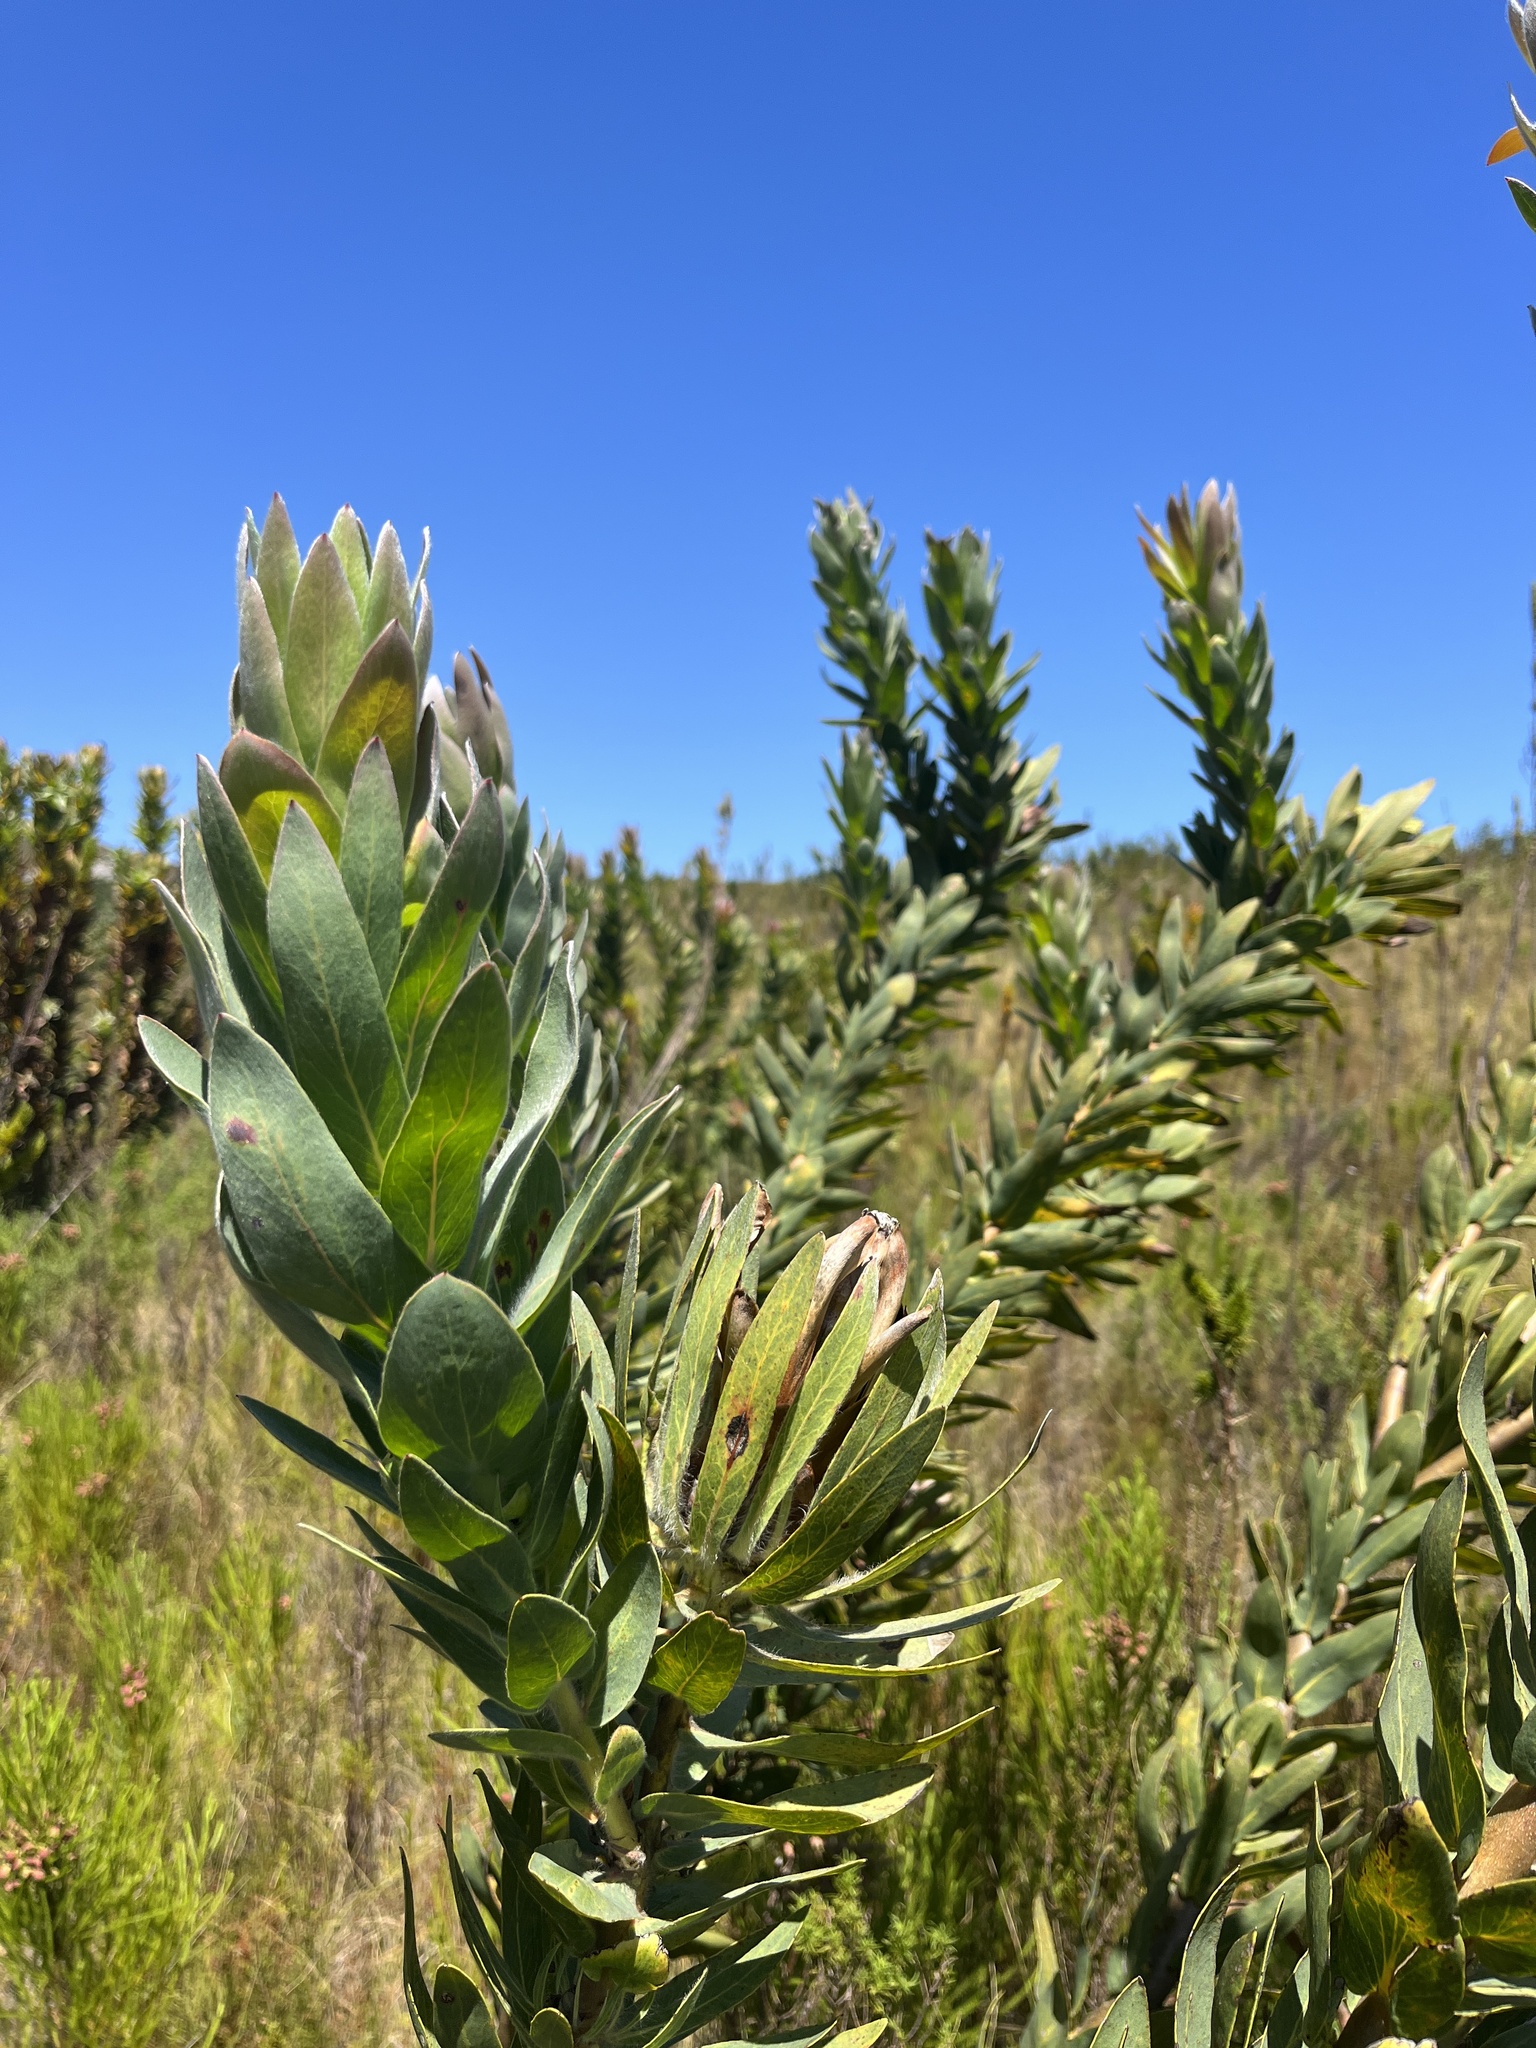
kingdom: Plantae
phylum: Tracheophyta
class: Magnoliopsida
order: Proteales
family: Proteaceae
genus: Protea
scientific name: Protea coronata
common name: Green sugarbush
